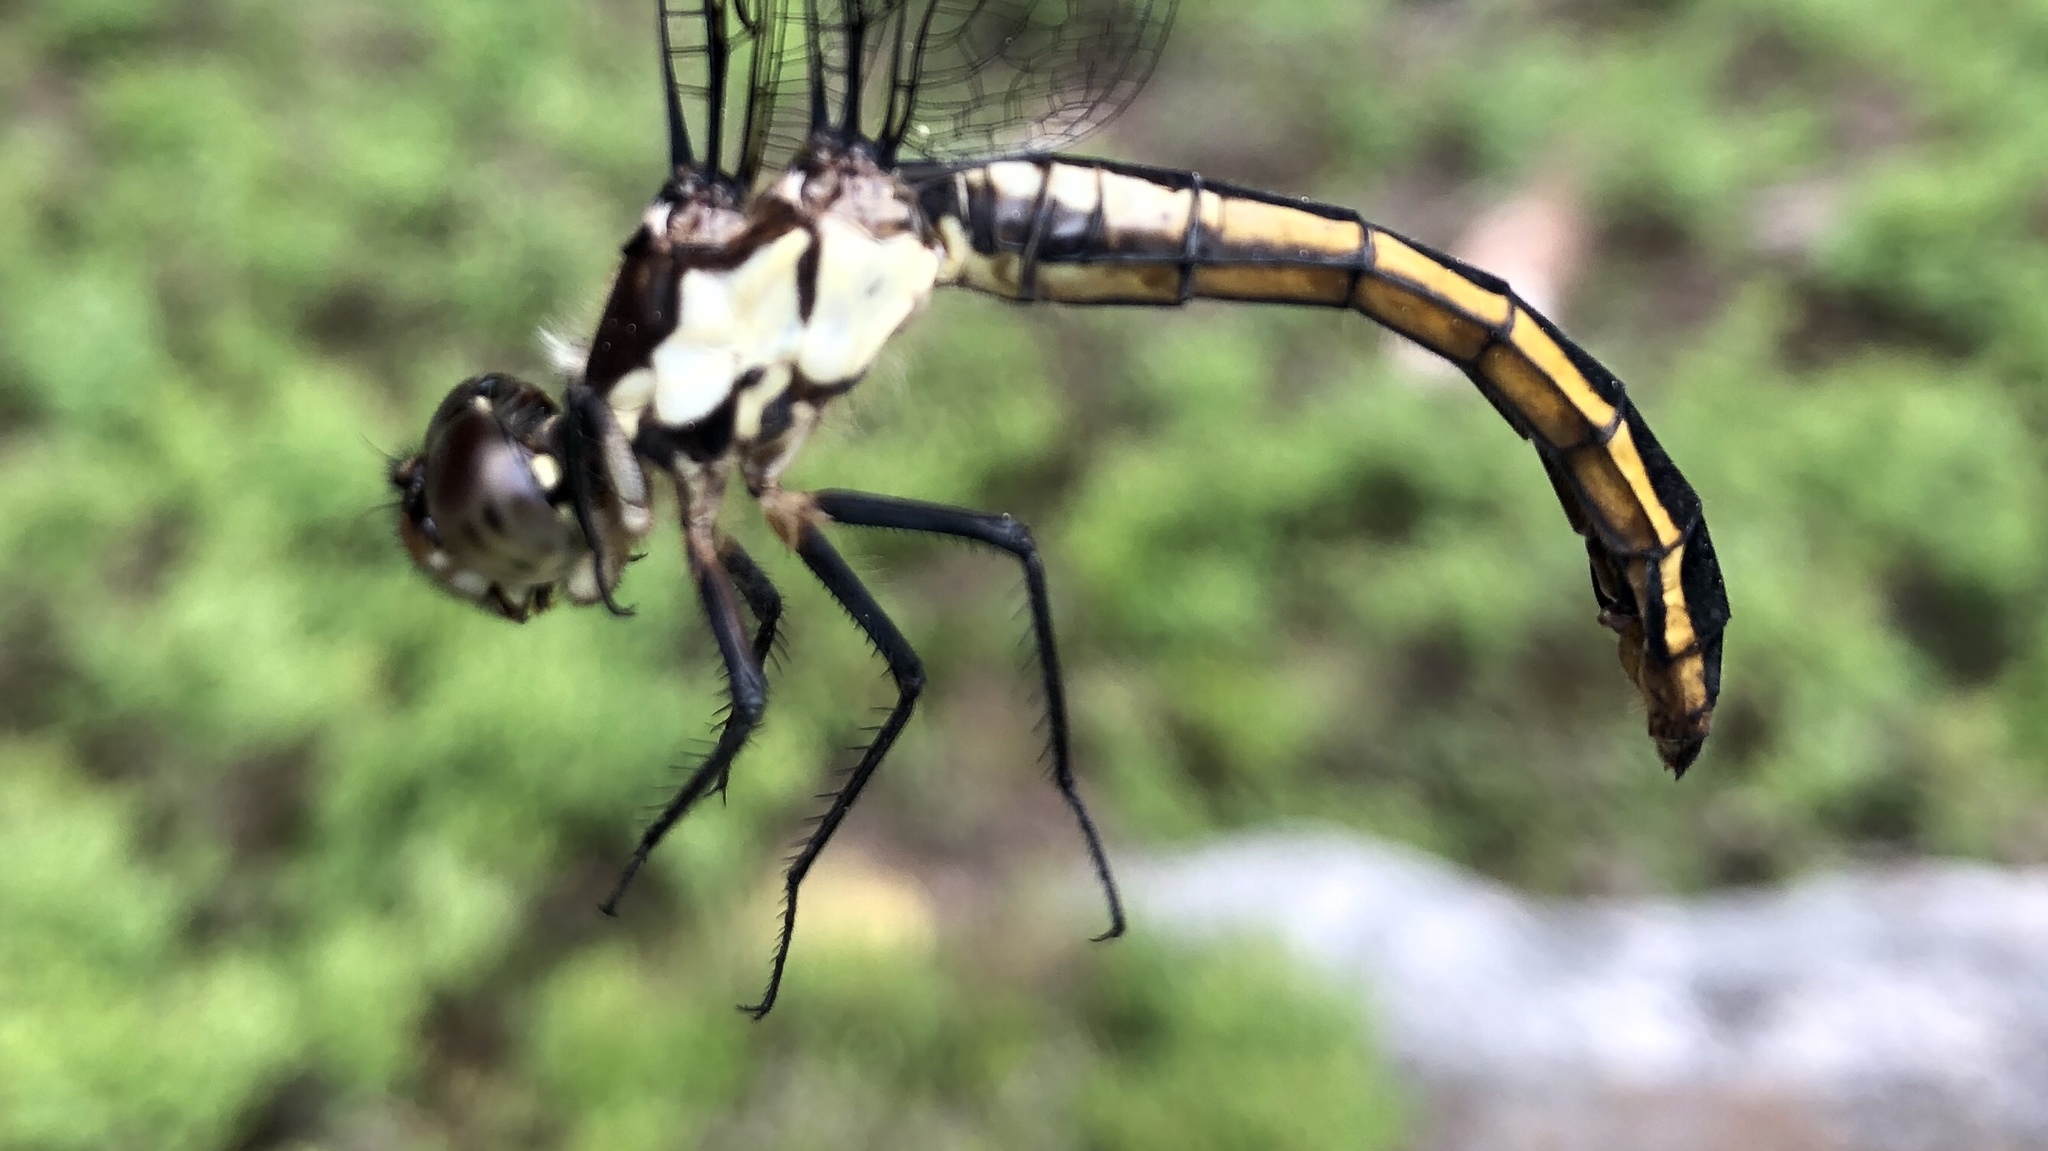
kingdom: Animalia
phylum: Arthropoda
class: Insecta
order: Odonata
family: Libellulidae
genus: Libellula
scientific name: Libellula incesta
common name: Slaty skimmer
